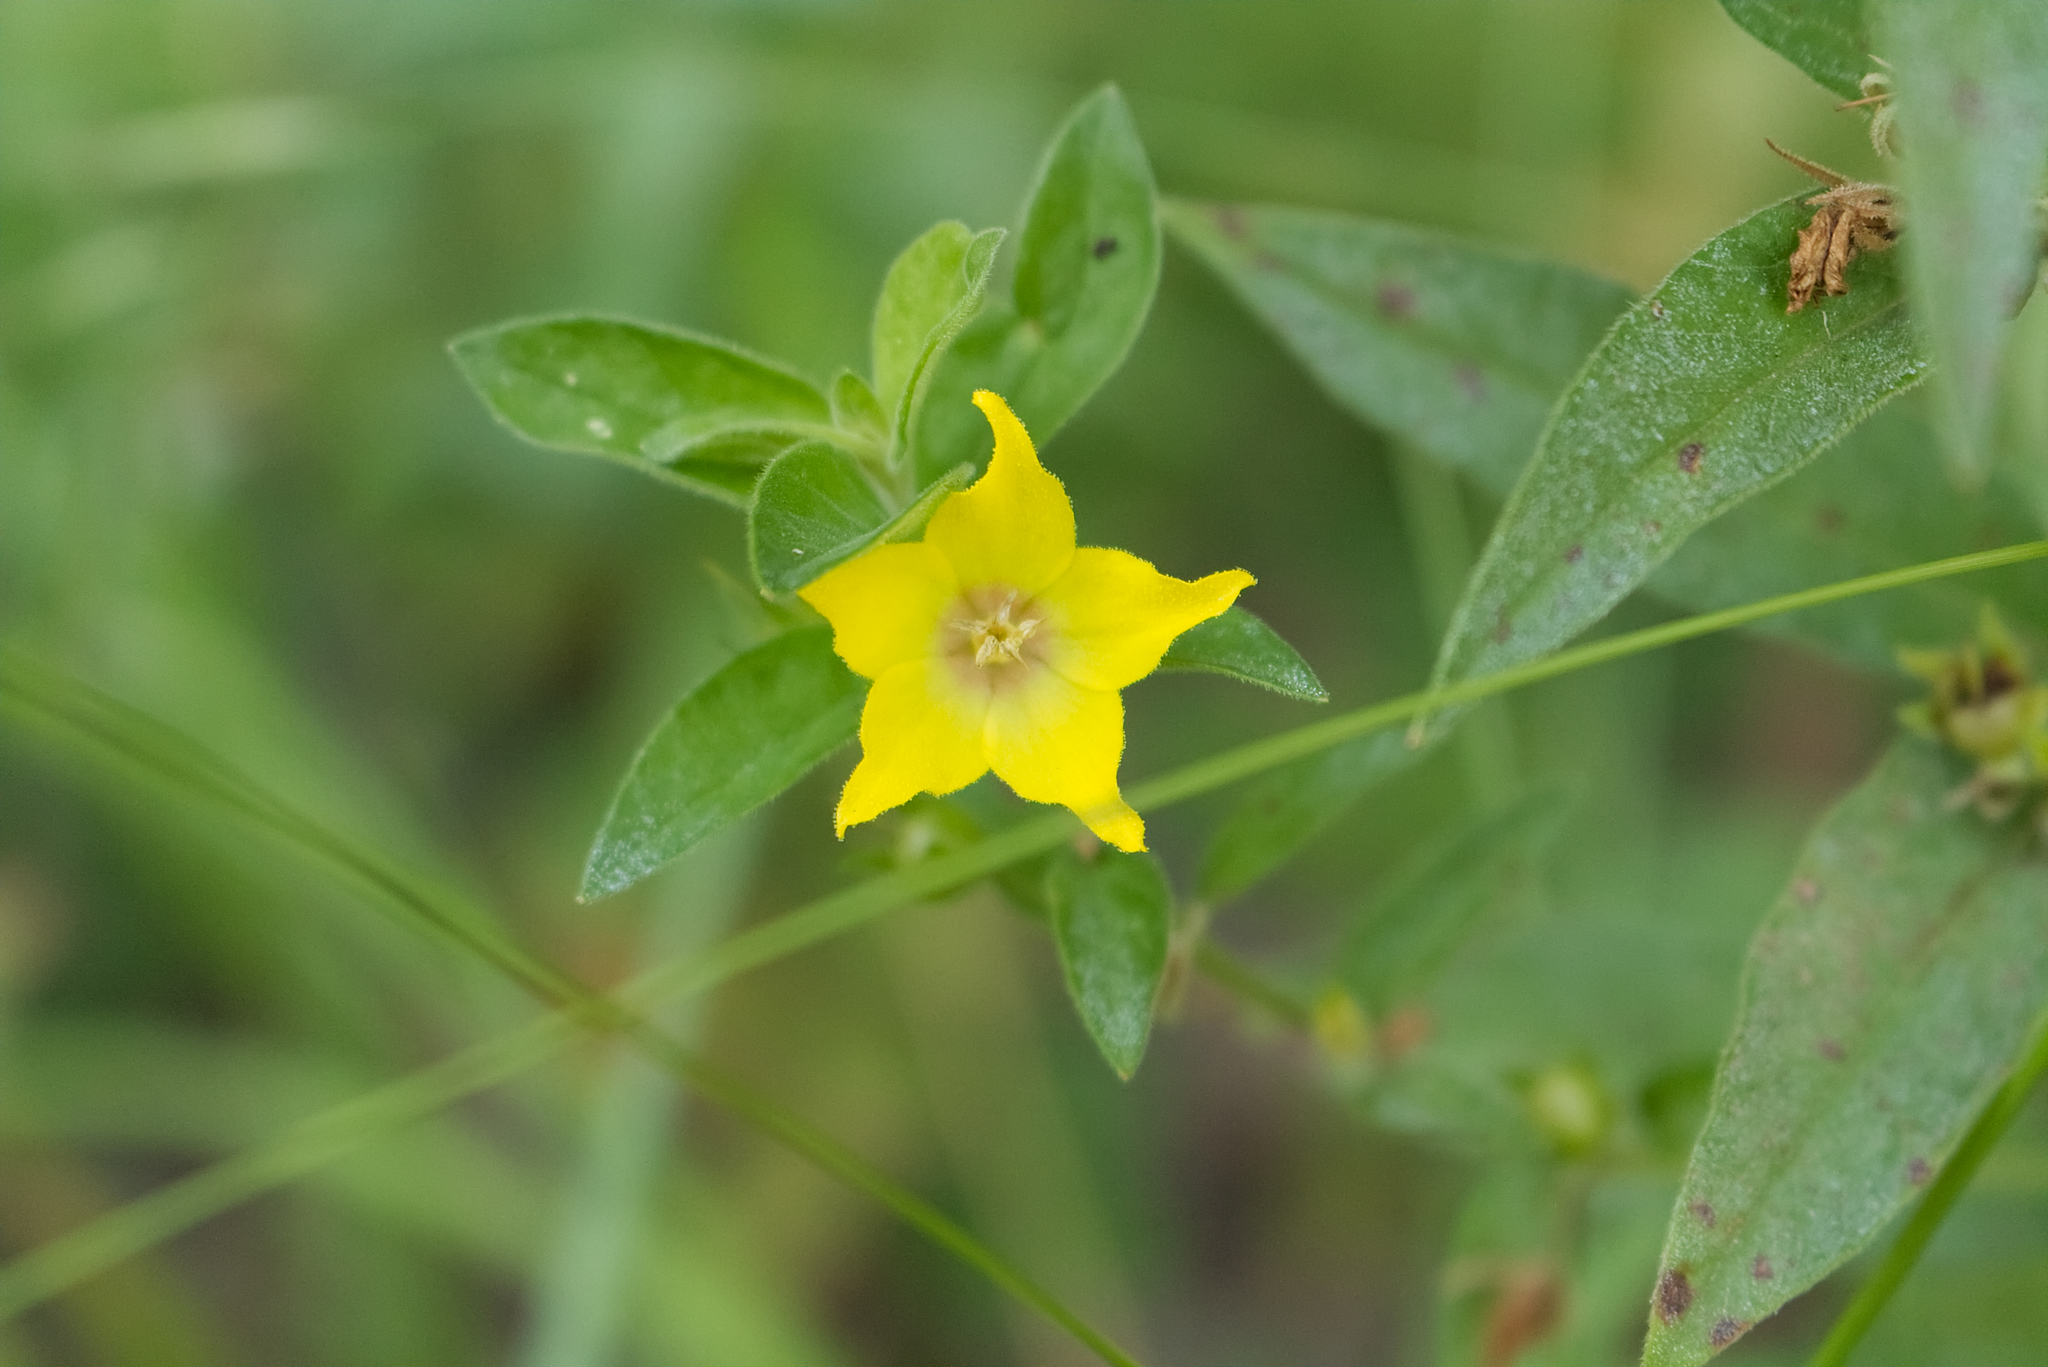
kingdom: Plantae
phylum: Tracheophyta
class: Magnoliopsida
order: Ericales
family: Primulaceae
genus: Lysimachia
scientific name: Lysimachia punctata
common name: Dotted loosestrife
